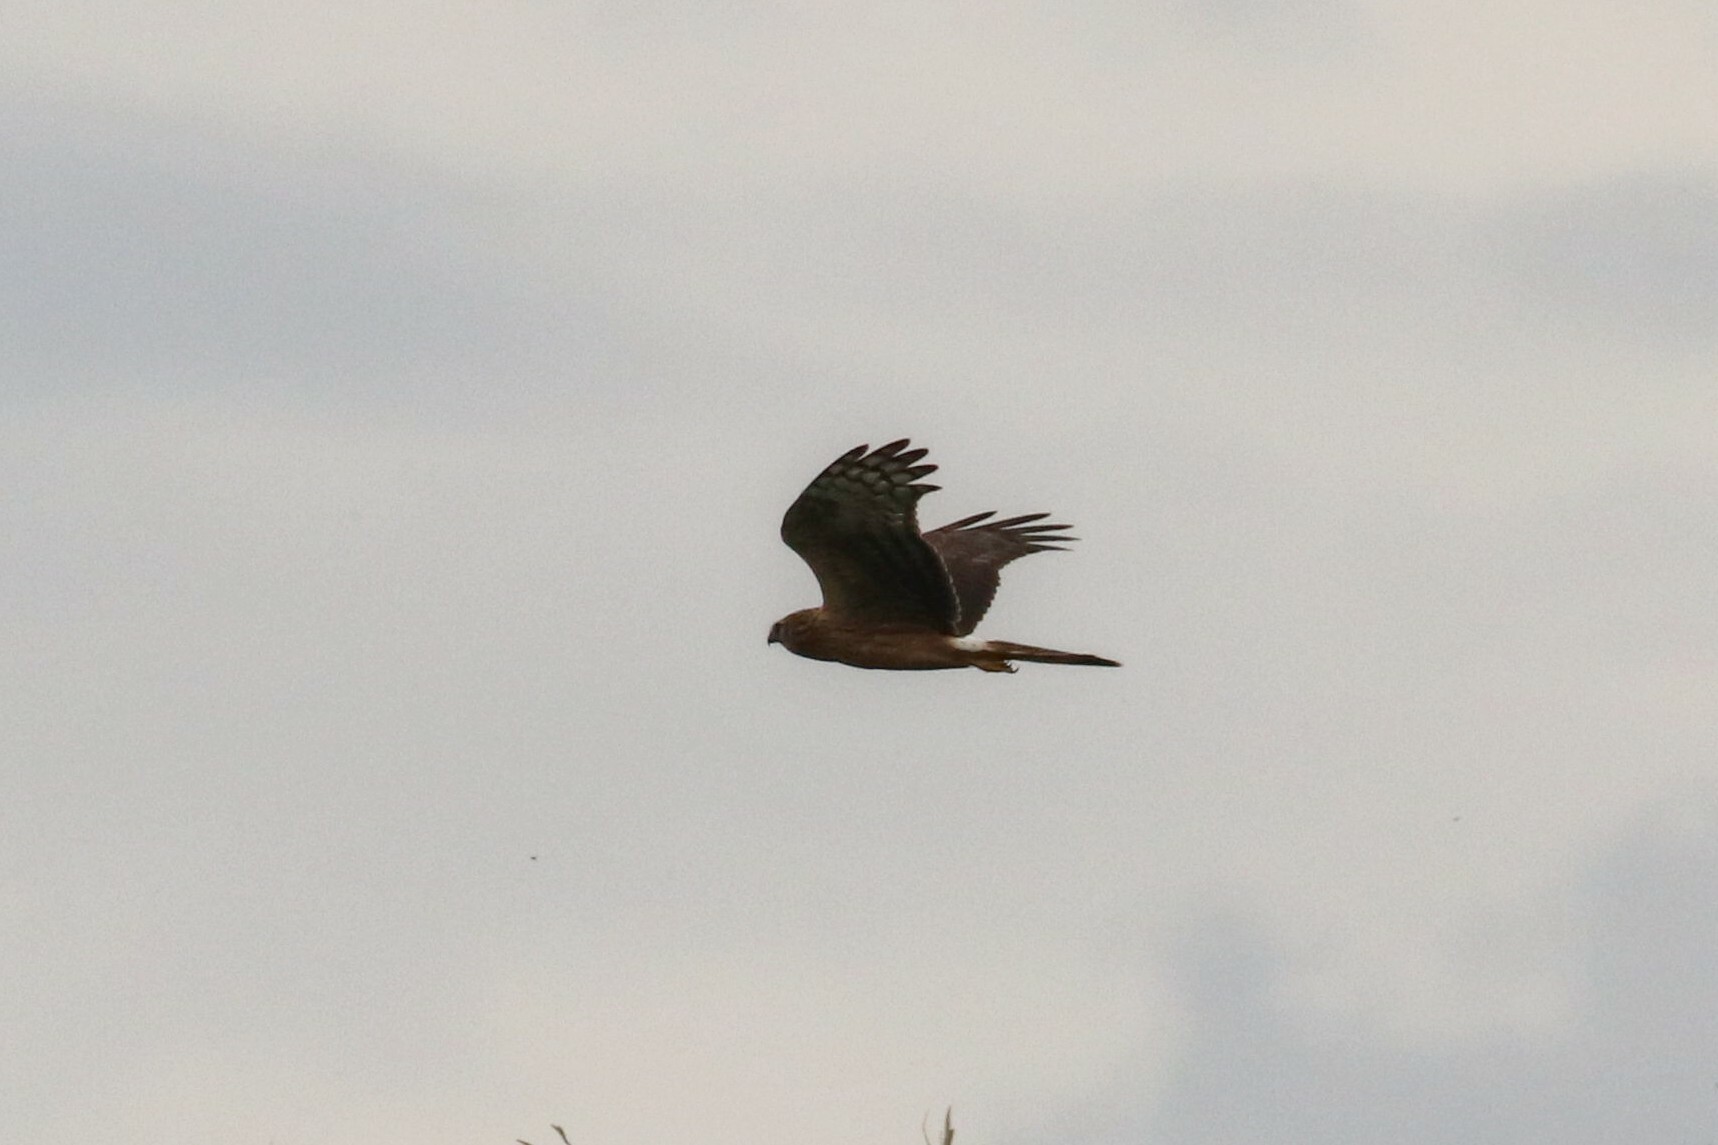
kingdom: Animalia
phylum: Chordata
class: Aves
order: Accipitriformes
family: Accipitridae
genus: Circus
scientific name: Circus cyaneus
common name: Hen harrier
